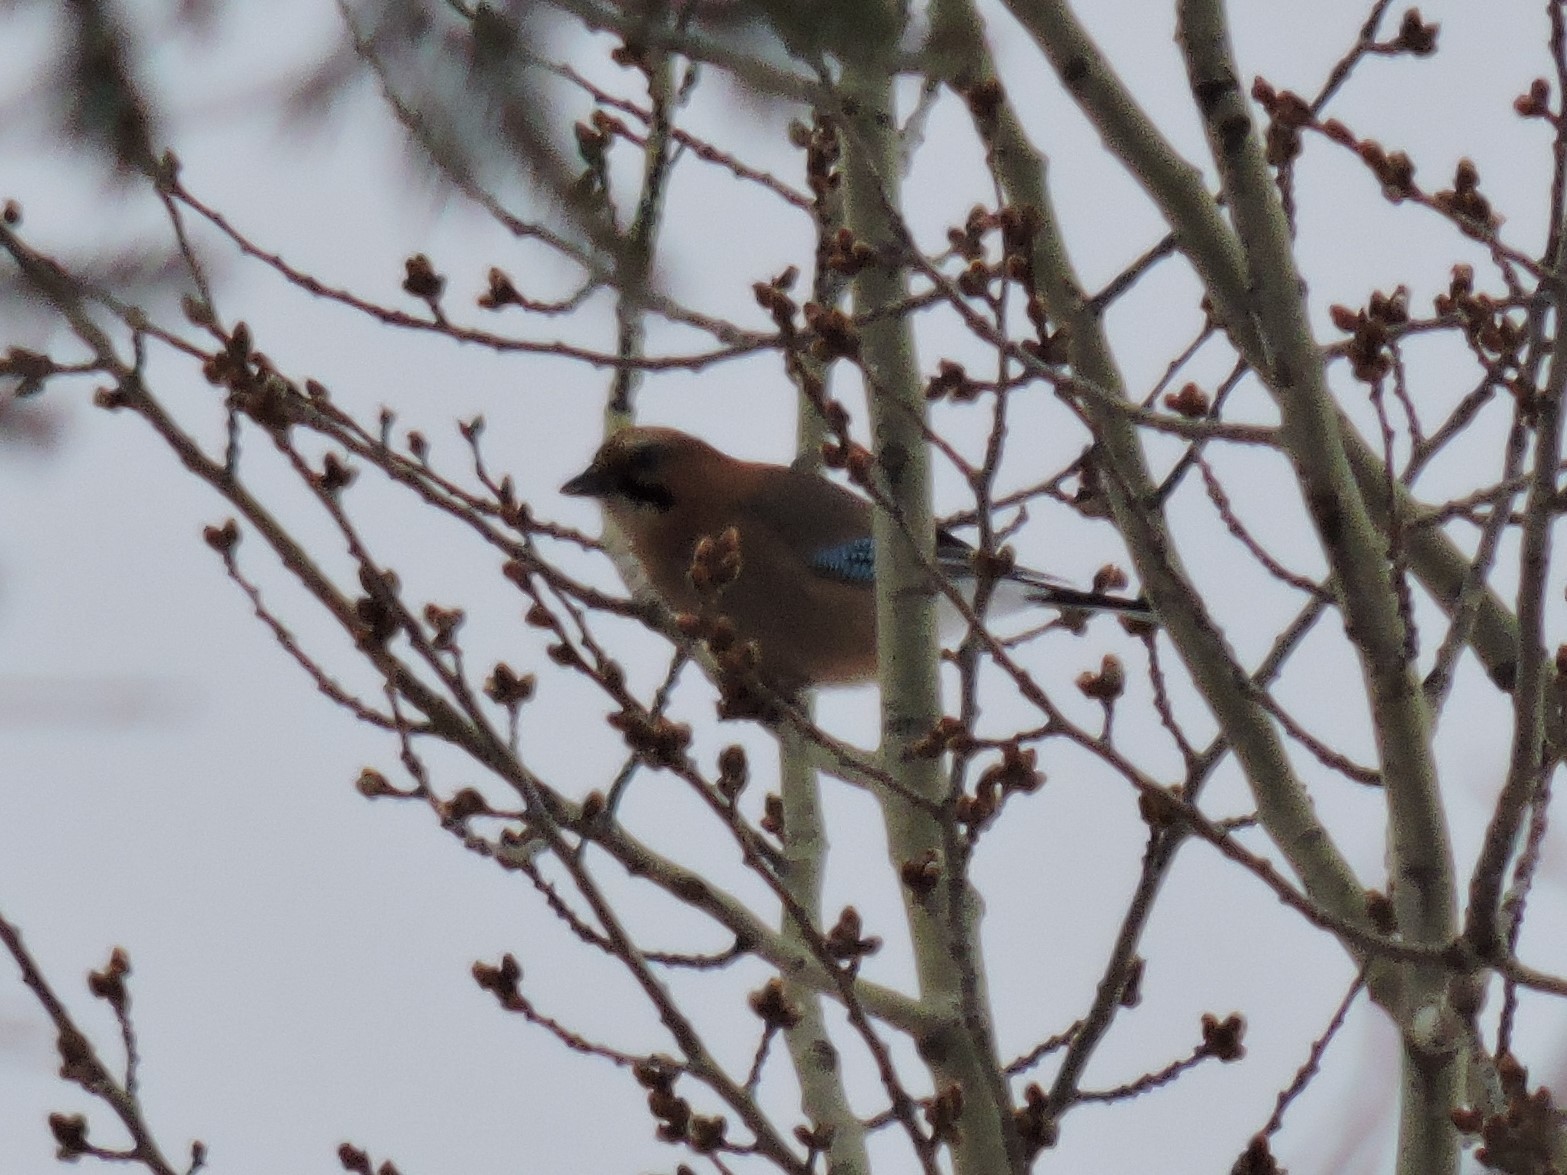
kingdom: Animalia
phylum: Chordata
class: Aves
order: Passeriformes
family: Corvidae
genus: Garrulus
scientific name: Garrulus glandarius
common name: Eurasian jay
